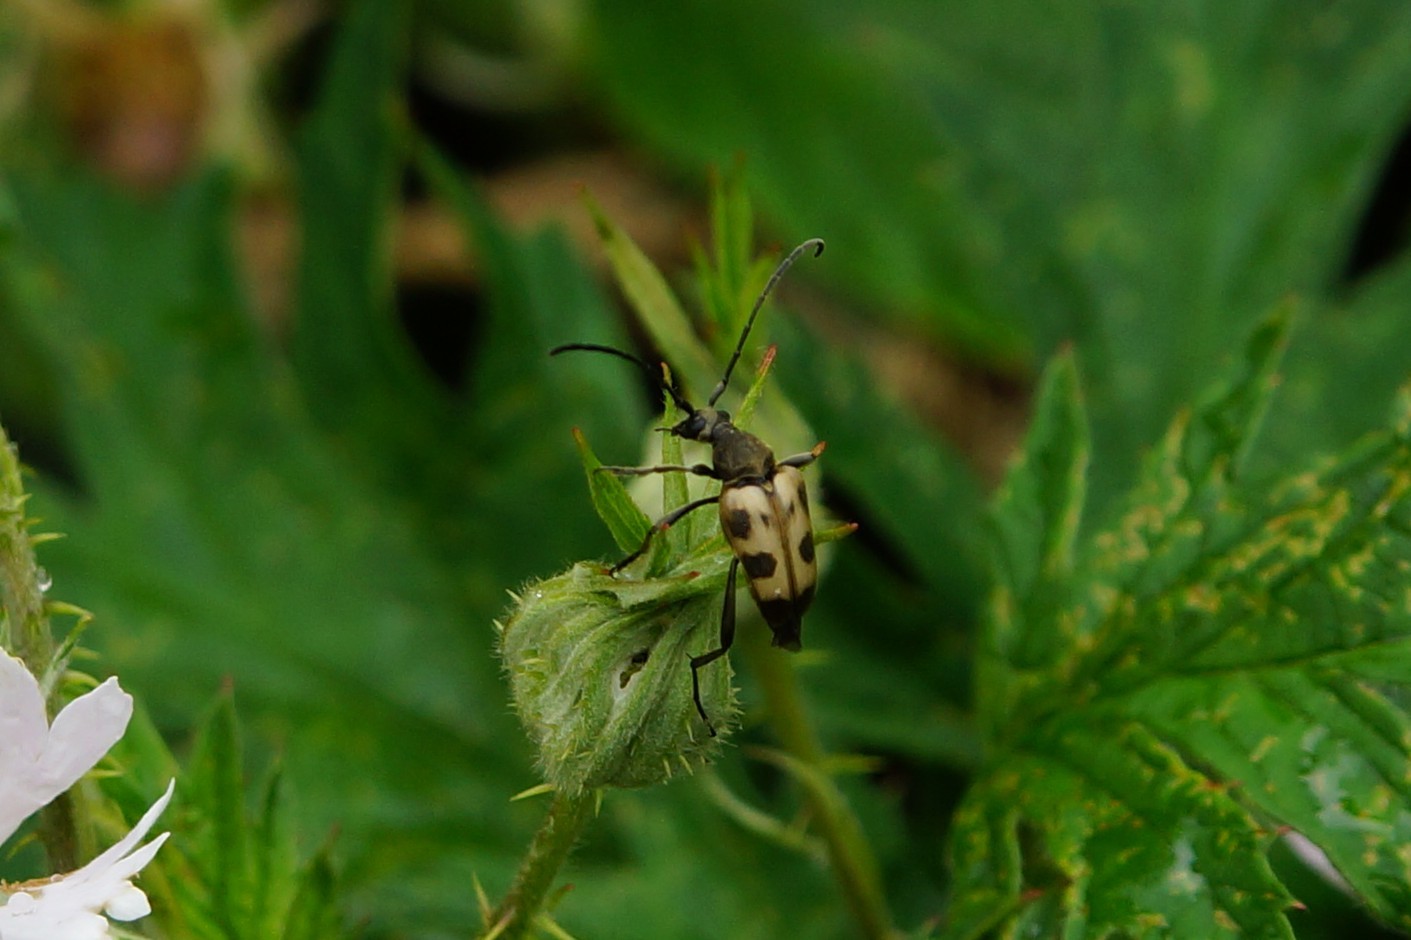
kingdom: Animalia
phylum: Arthropoda
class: Insecta
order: Coleoptera
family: Cerambycidae
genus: Pachytodes
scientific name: Pachytodes cerambyciformis
